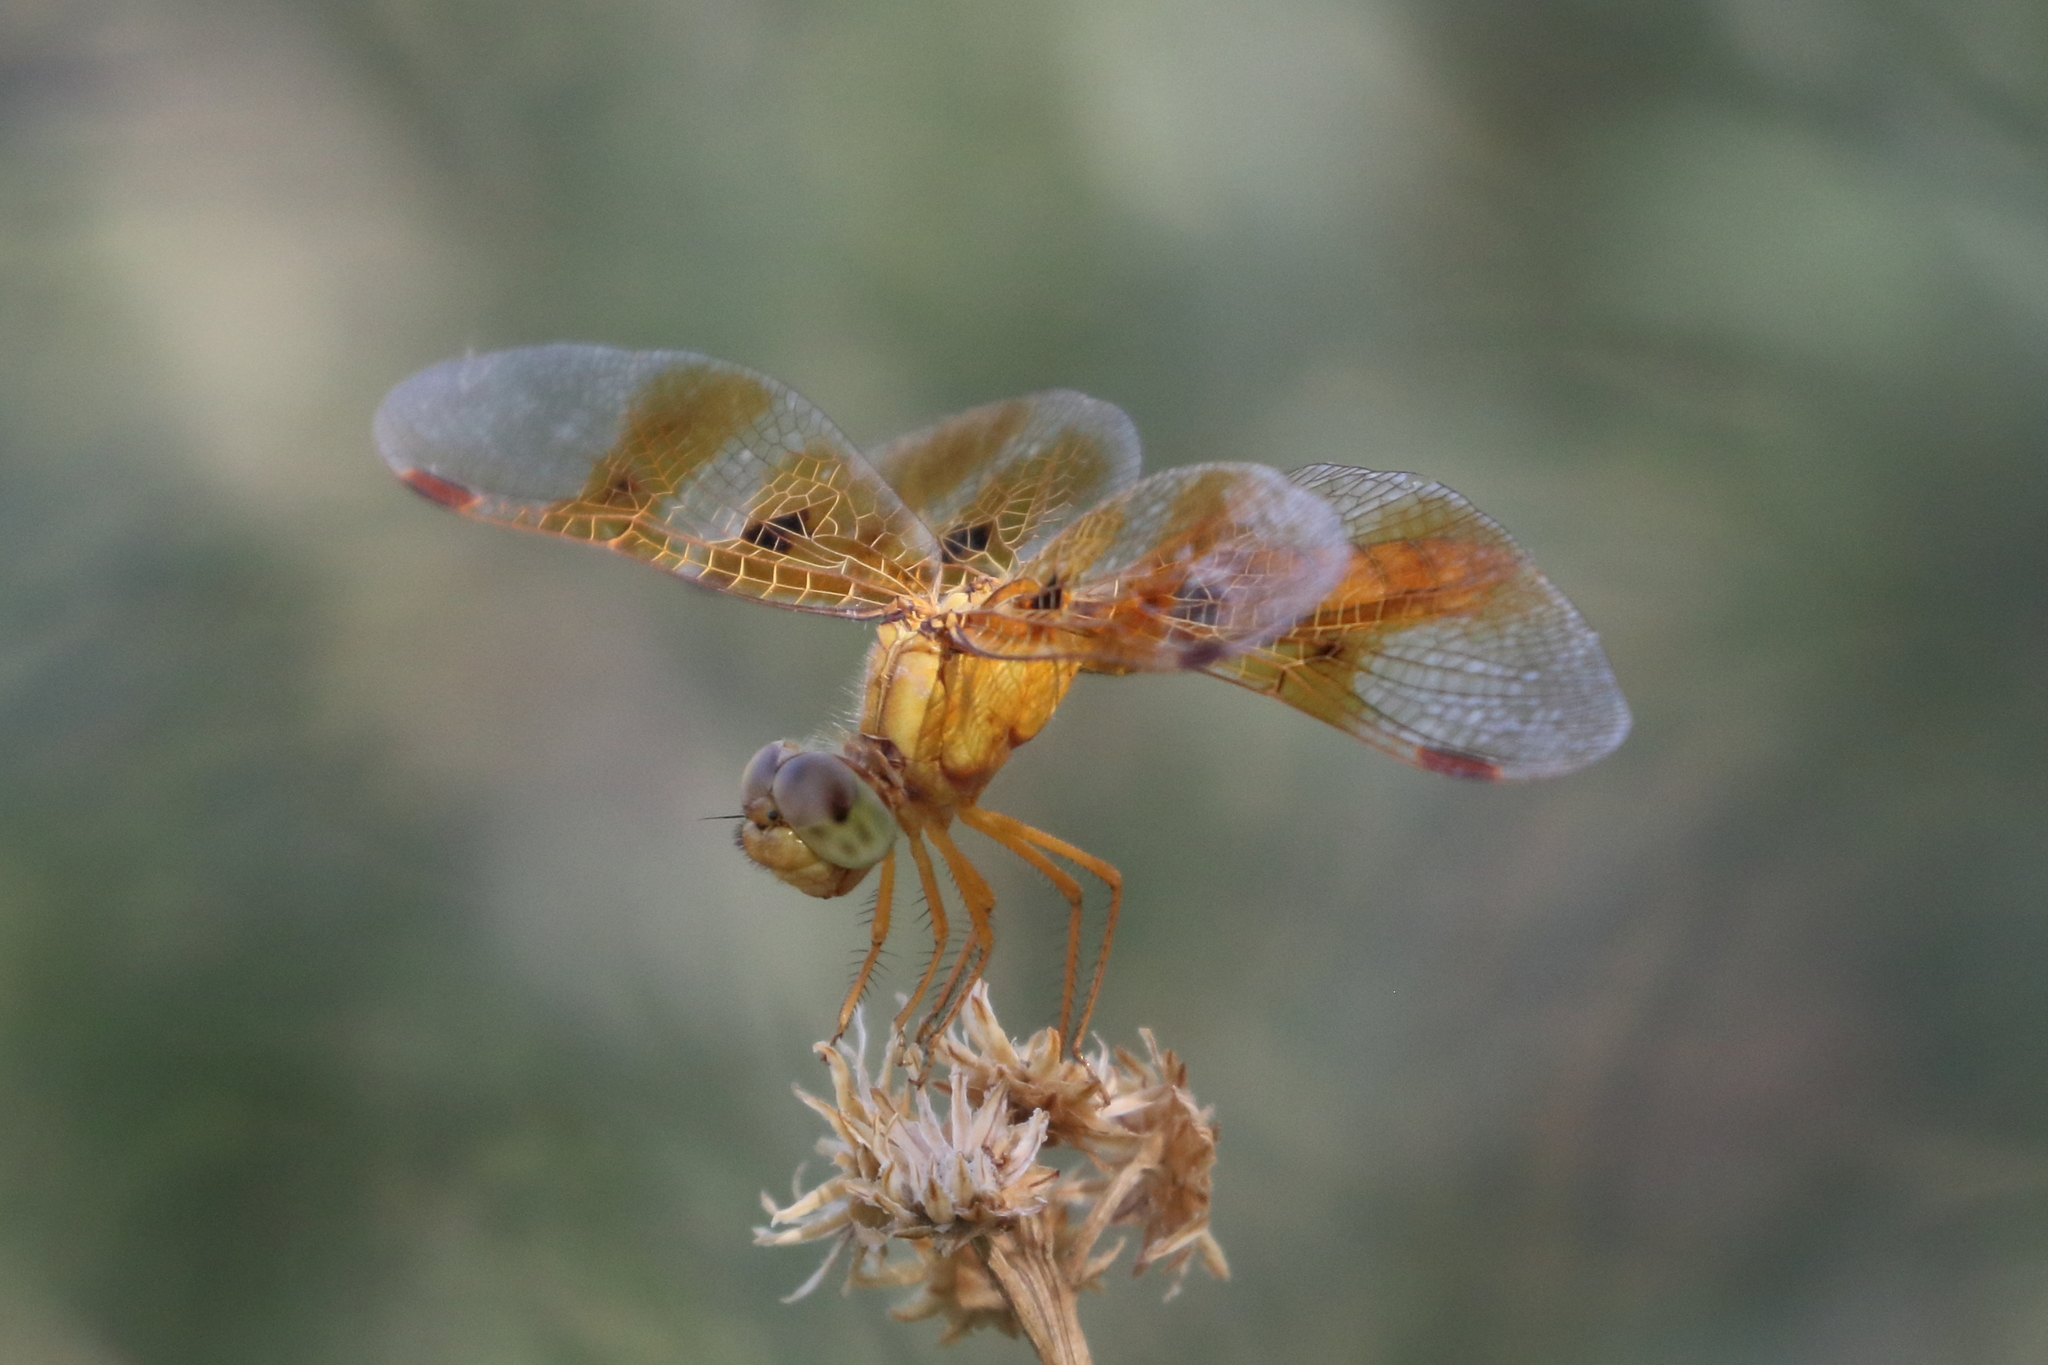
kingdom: Animalia
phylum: Arthropoda
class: Insecta
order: Odonata
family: Libellulidae
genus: Perithemis
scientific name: Perithemis intensa
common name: Mexican amberwing
